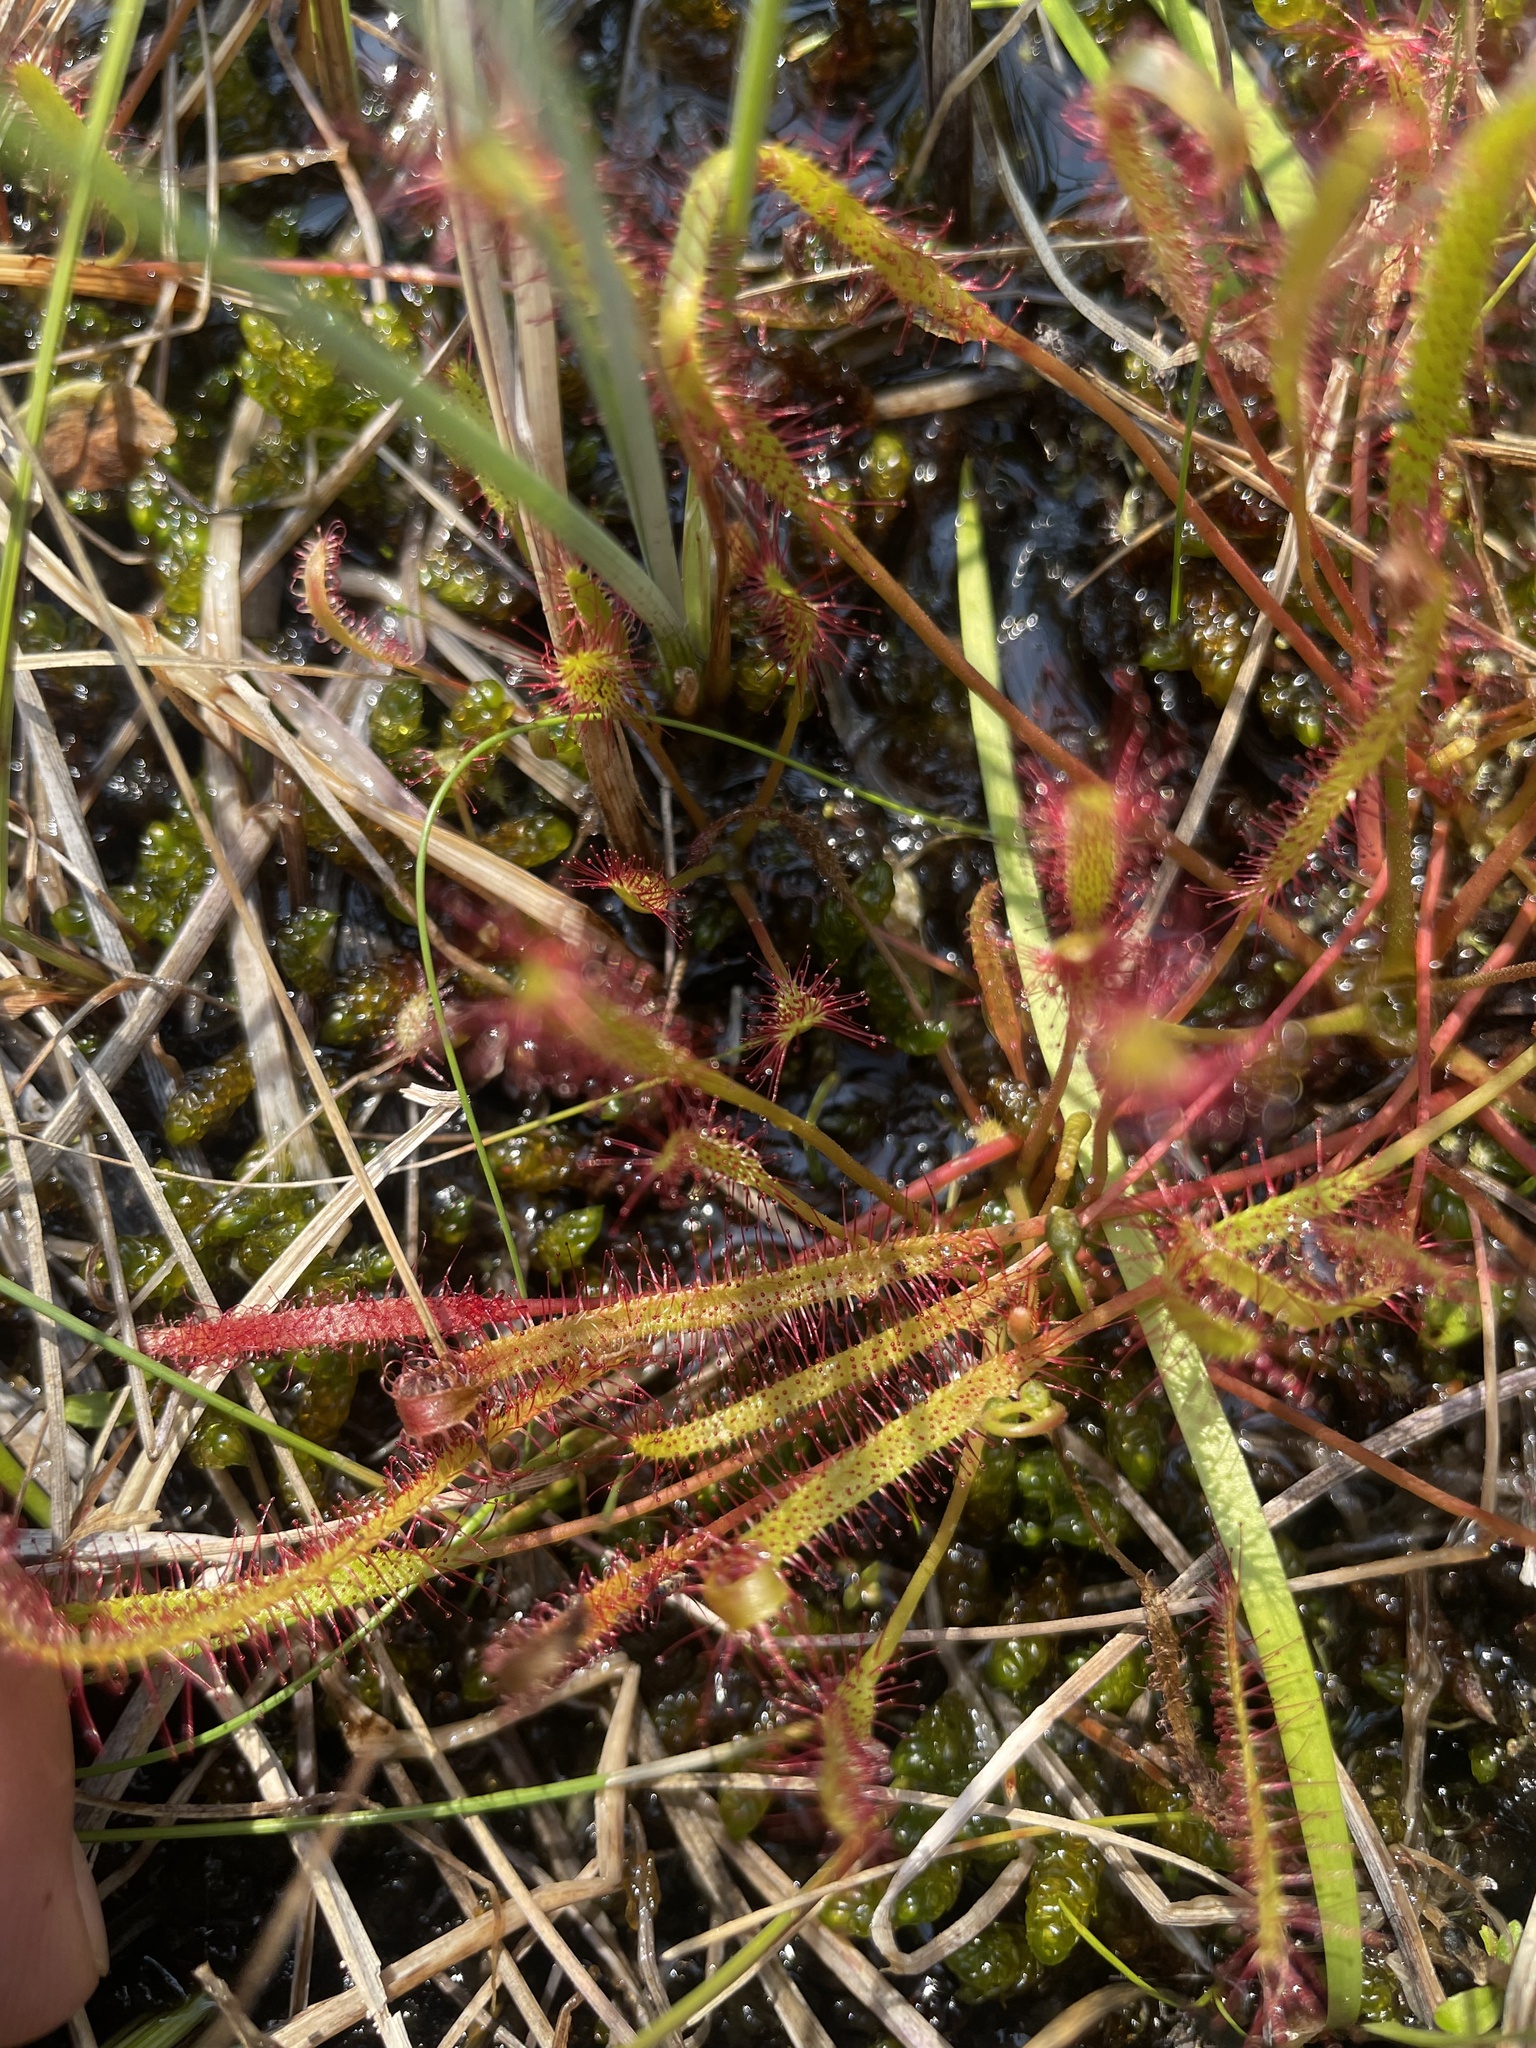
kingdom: Plantae
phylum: Tracheophyta
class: Magnoliopsida
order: Caryophyllales
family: Droseraceae
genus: Drosera
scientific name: Drosera linearis
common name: Linear-leaved sundew
